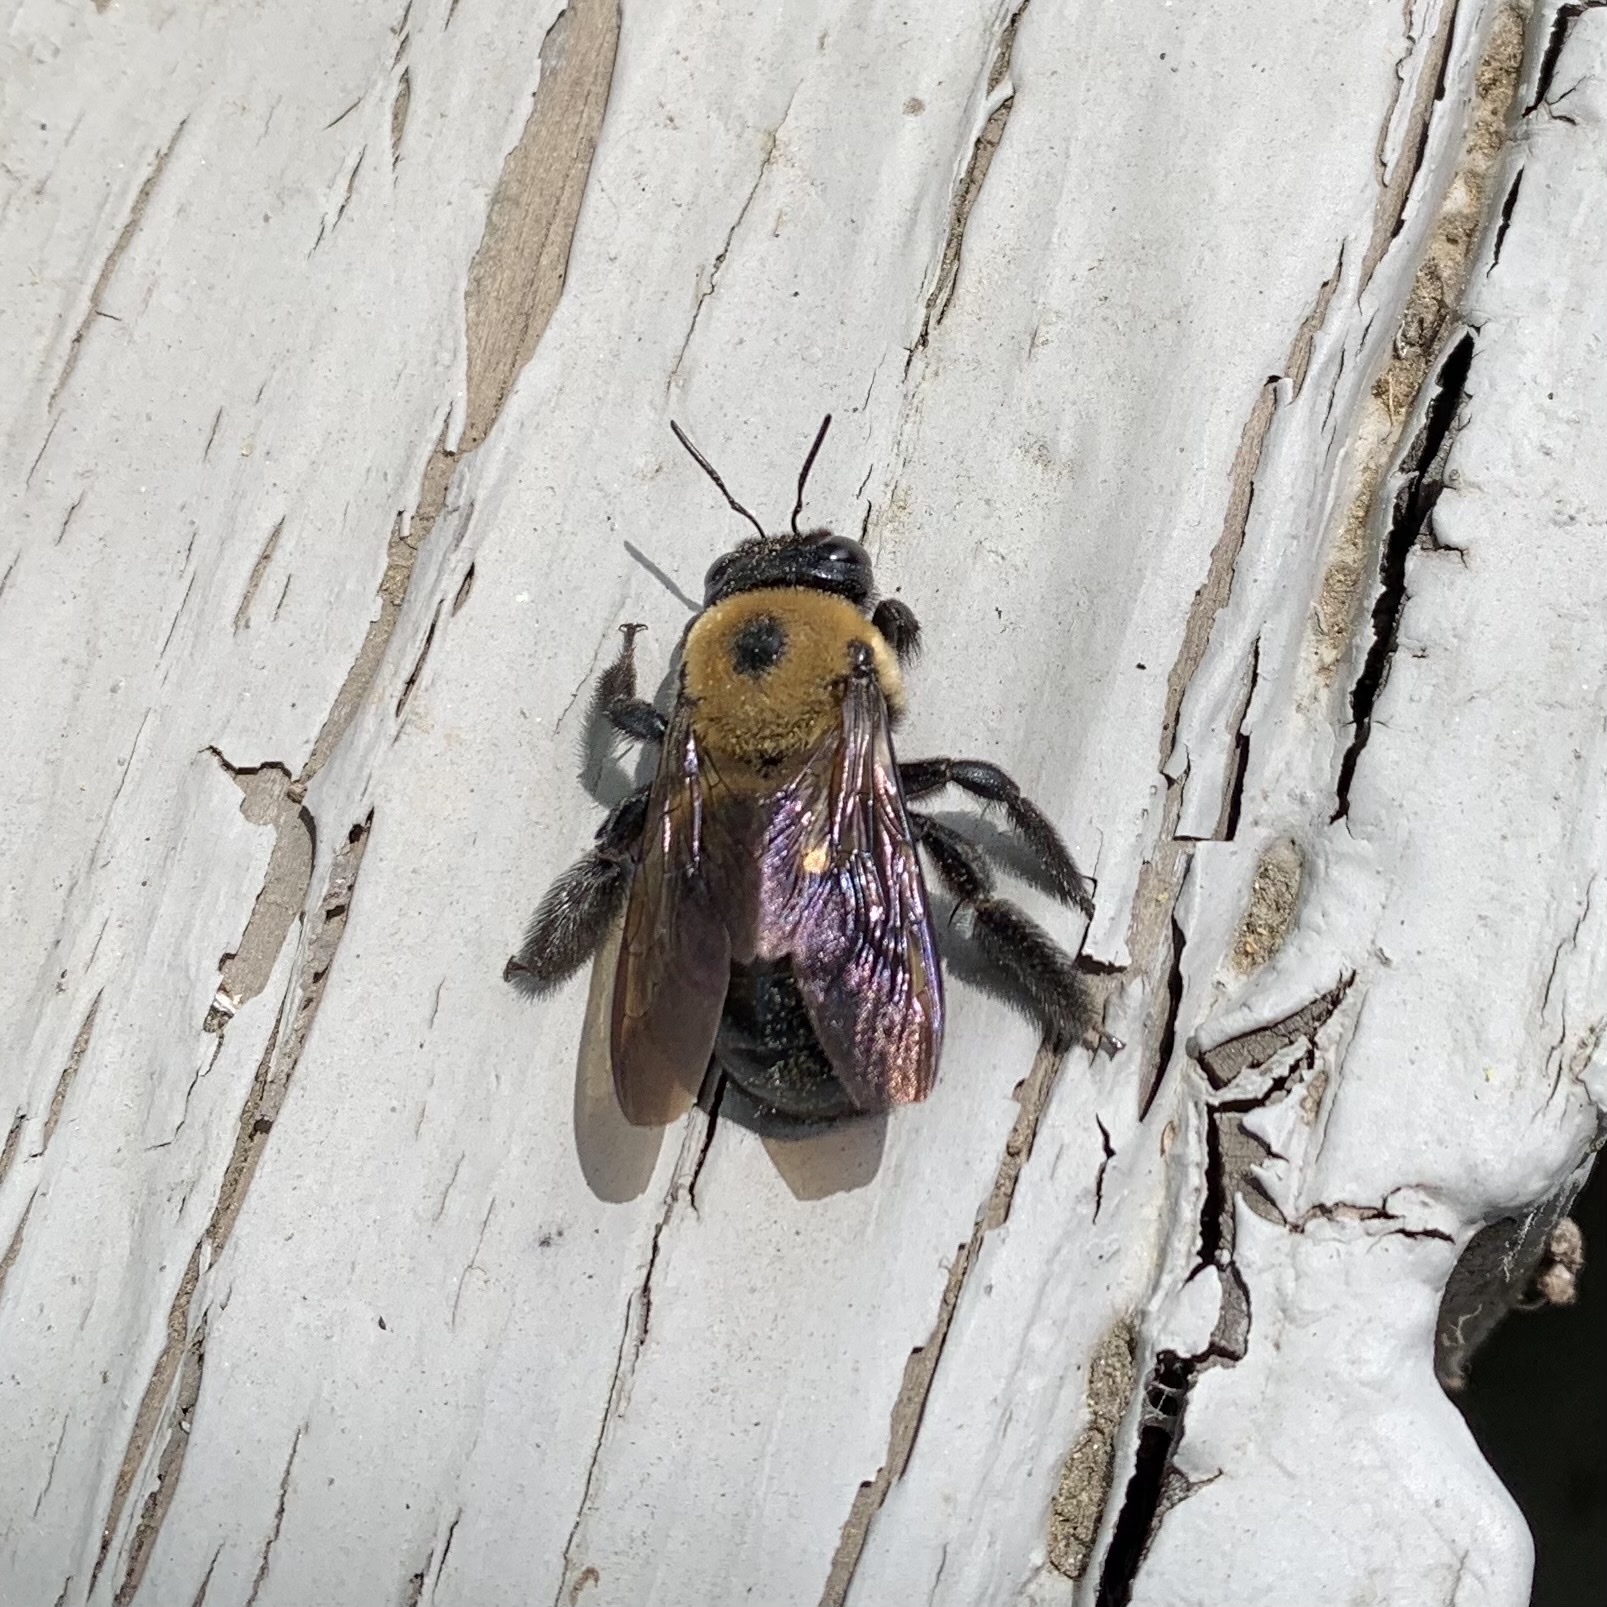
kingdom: Animalia
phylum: Arthropoda
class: Insecta
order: Hymenoptera
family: Apidae
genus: Xylocopa
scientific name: Xylocopa virginica
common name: Carpenter bee
